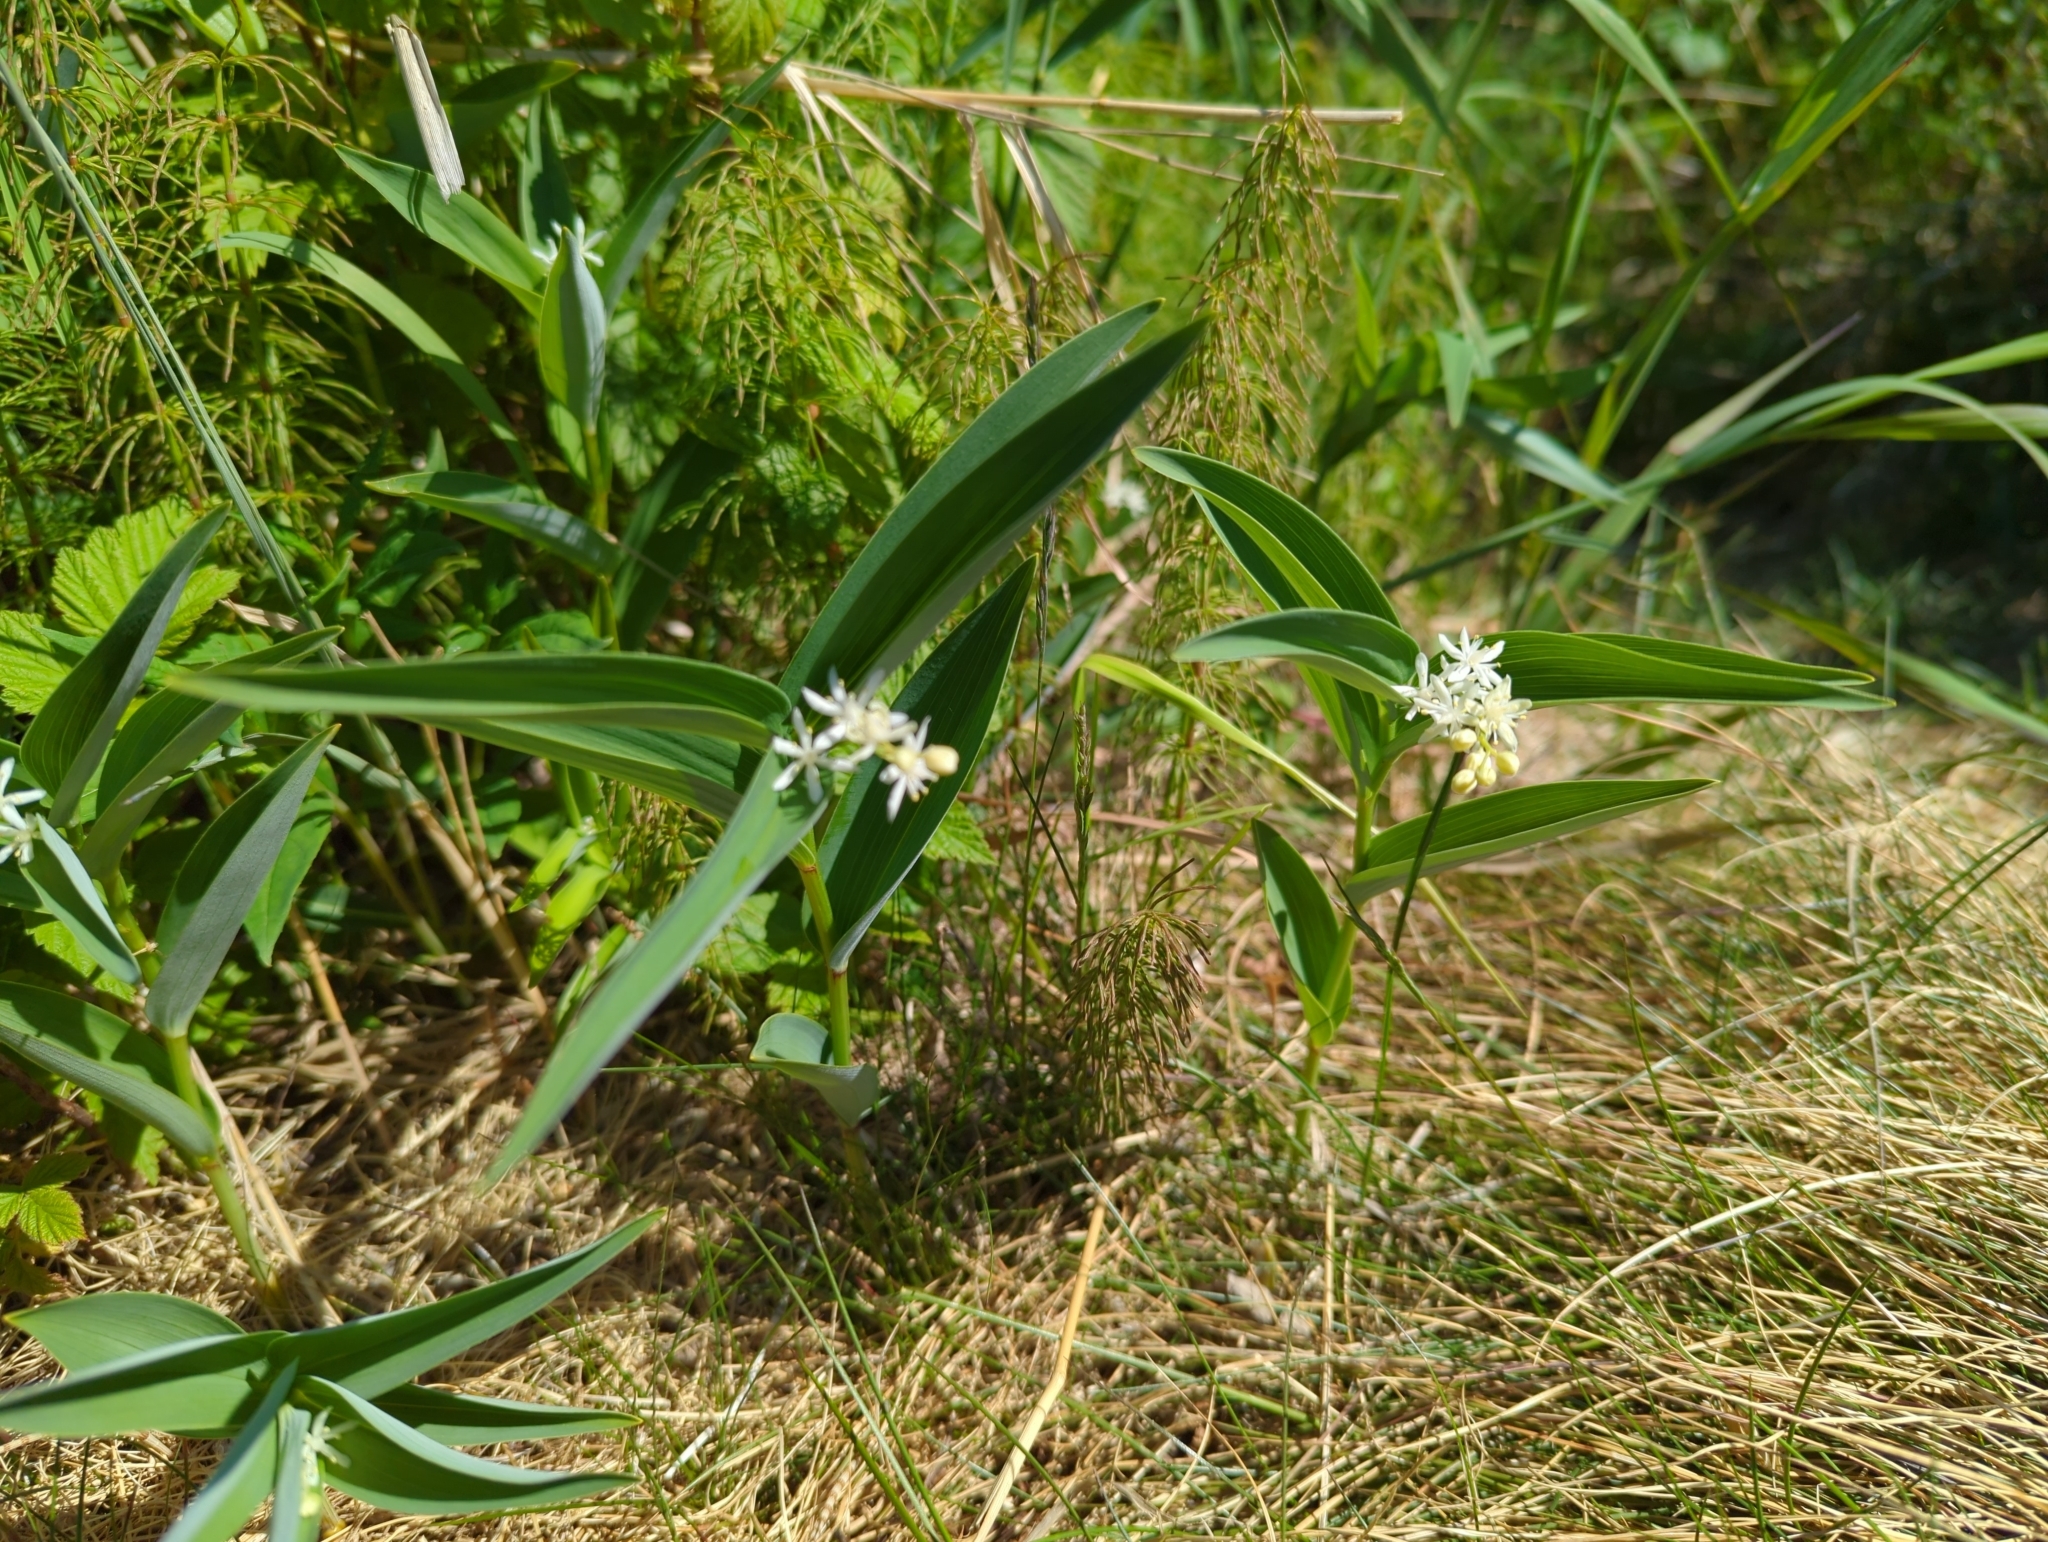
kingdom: Plantae
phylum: Tracheophyta
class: Liliopsida
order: Asparagales
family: Asparagaceae
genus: Maianthemum
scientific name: Maianthemum stellatum
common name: Little false solomon's seal
